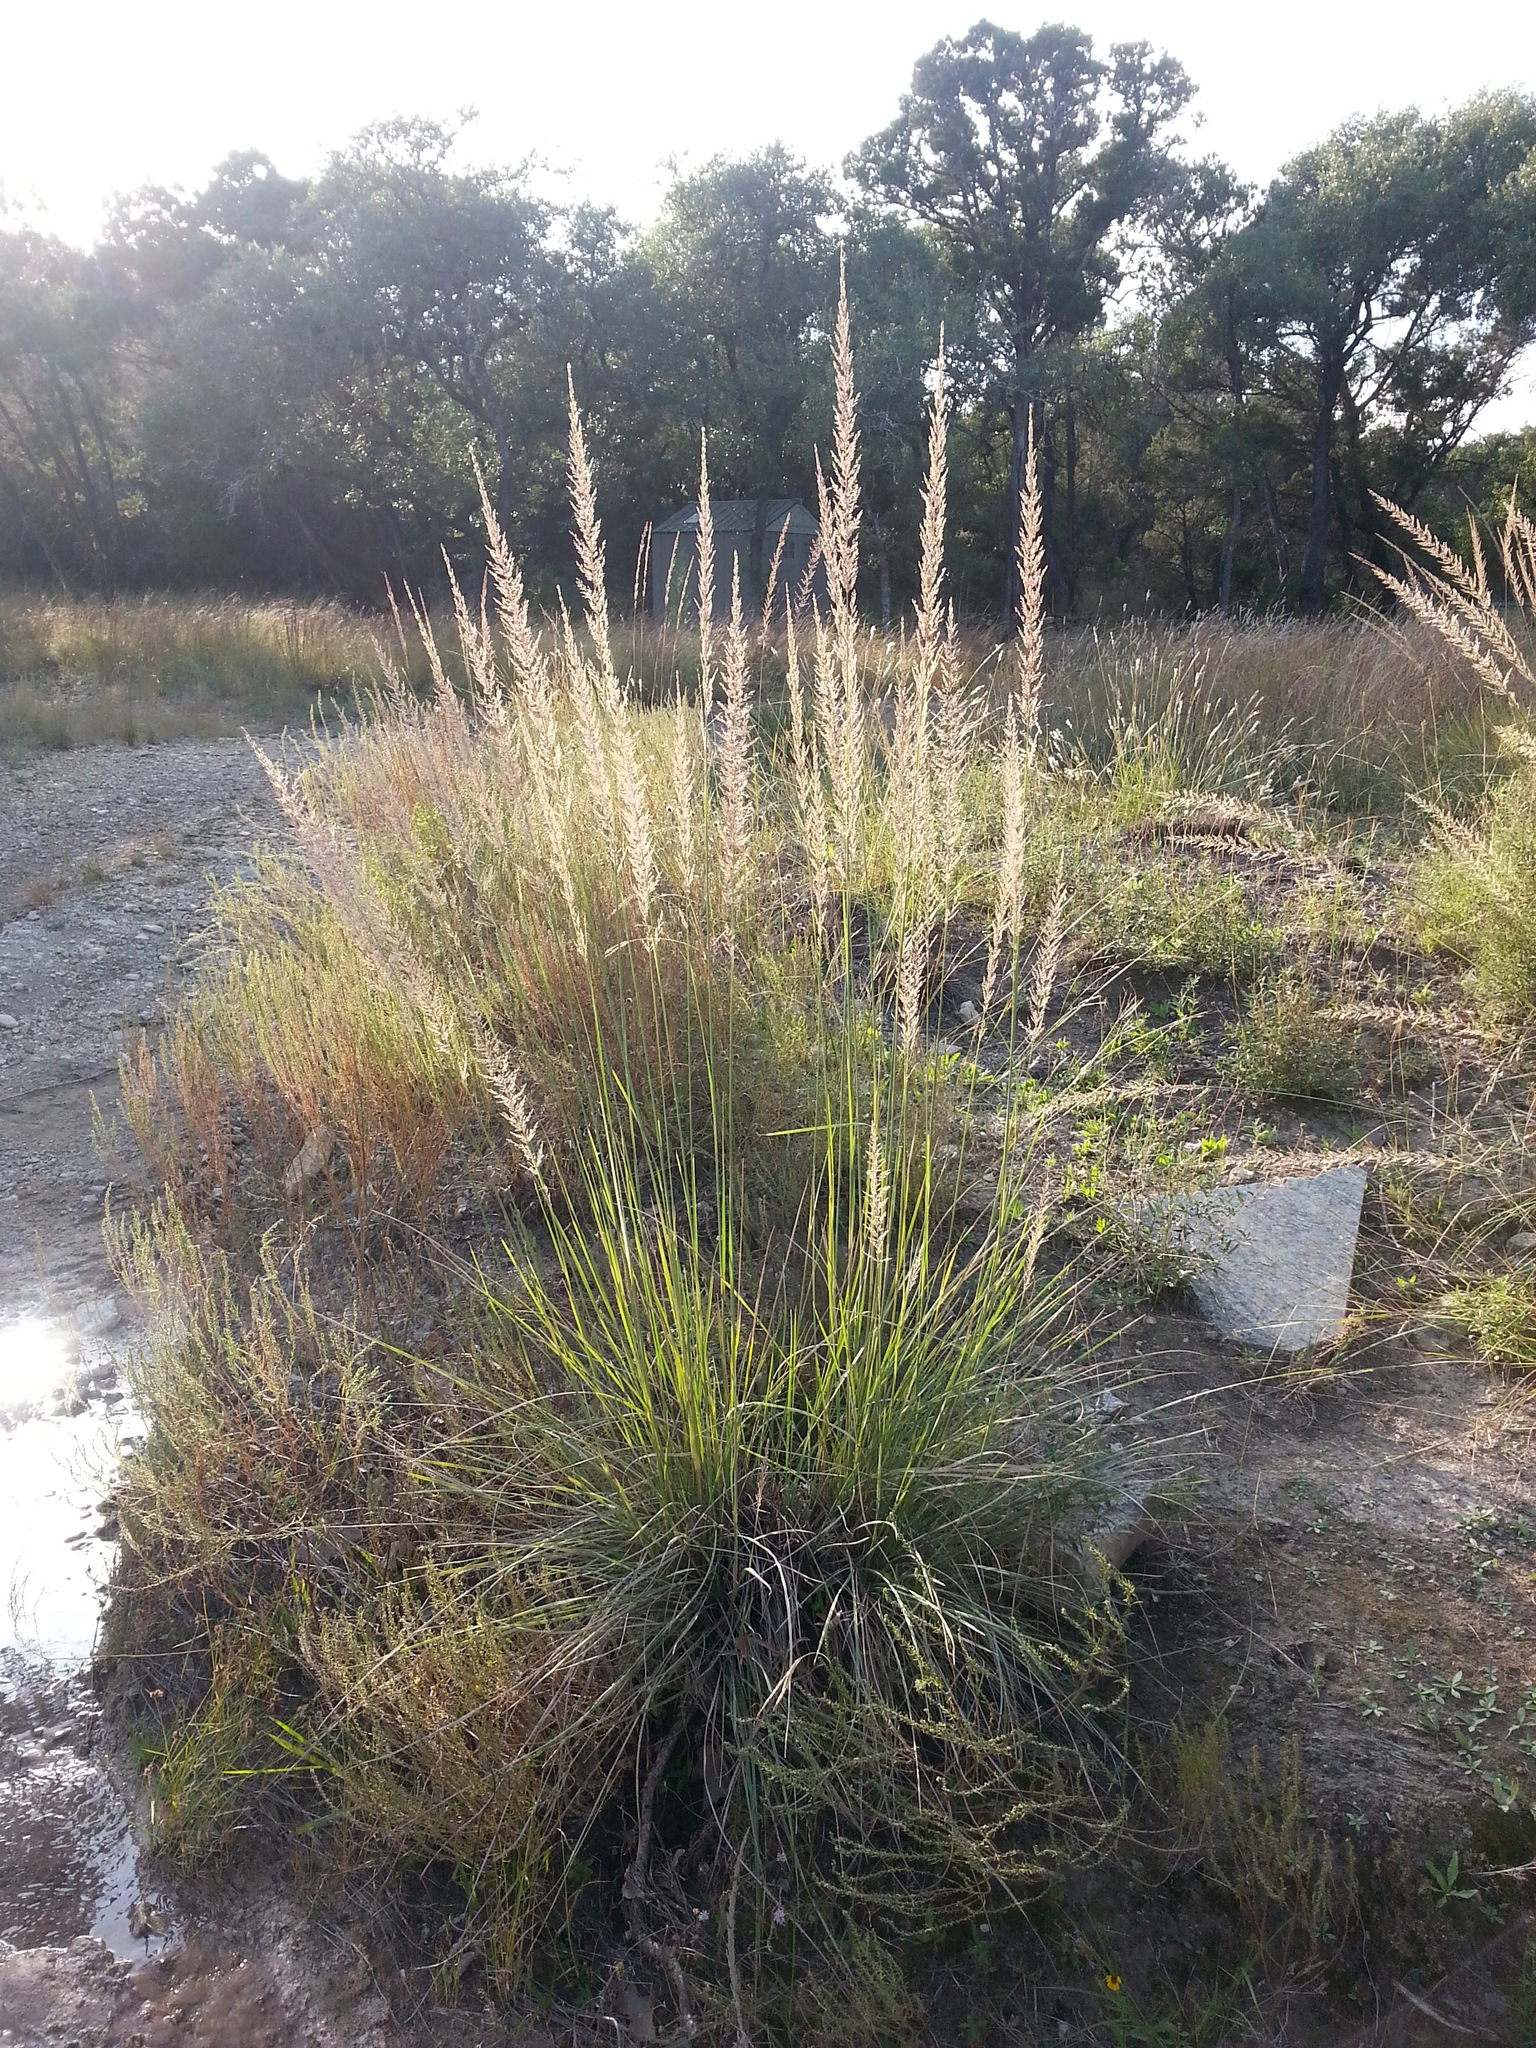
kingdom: Plantae
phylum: Tracheophyta
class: Liliopsida
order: Poales
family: Poaceae
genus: Muhlenbergia
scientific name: Muhlenbergia lindheimeri
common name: Lindheimer's muhly
